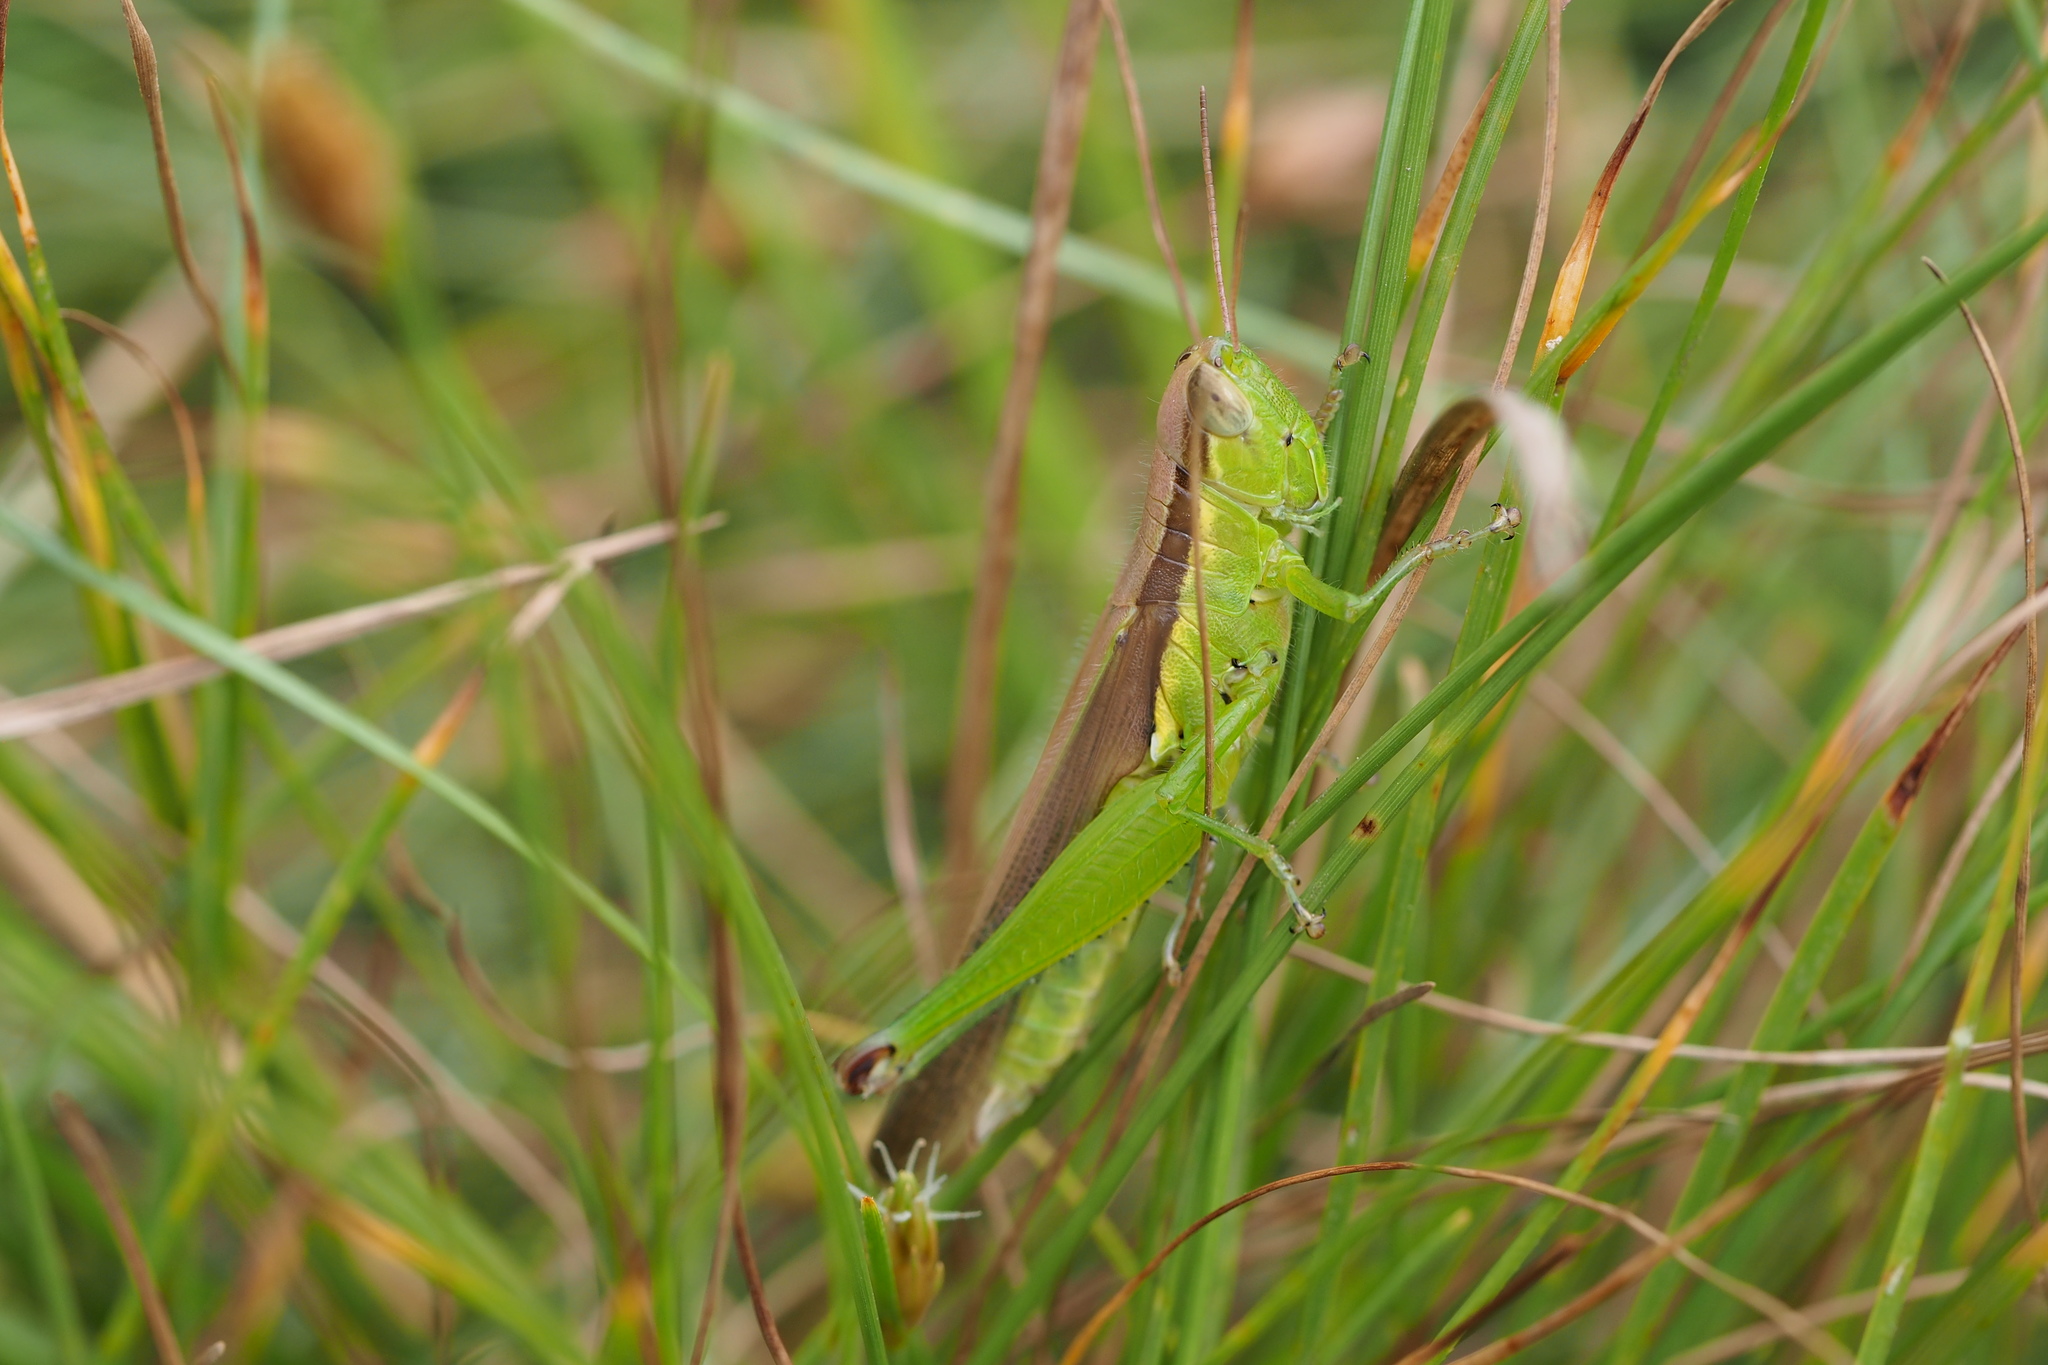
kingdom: Animalia
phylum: Arthropoda
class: Insecta
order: Orthoptera
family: Acrididae
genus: Oxya
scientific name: Oxya japonica
